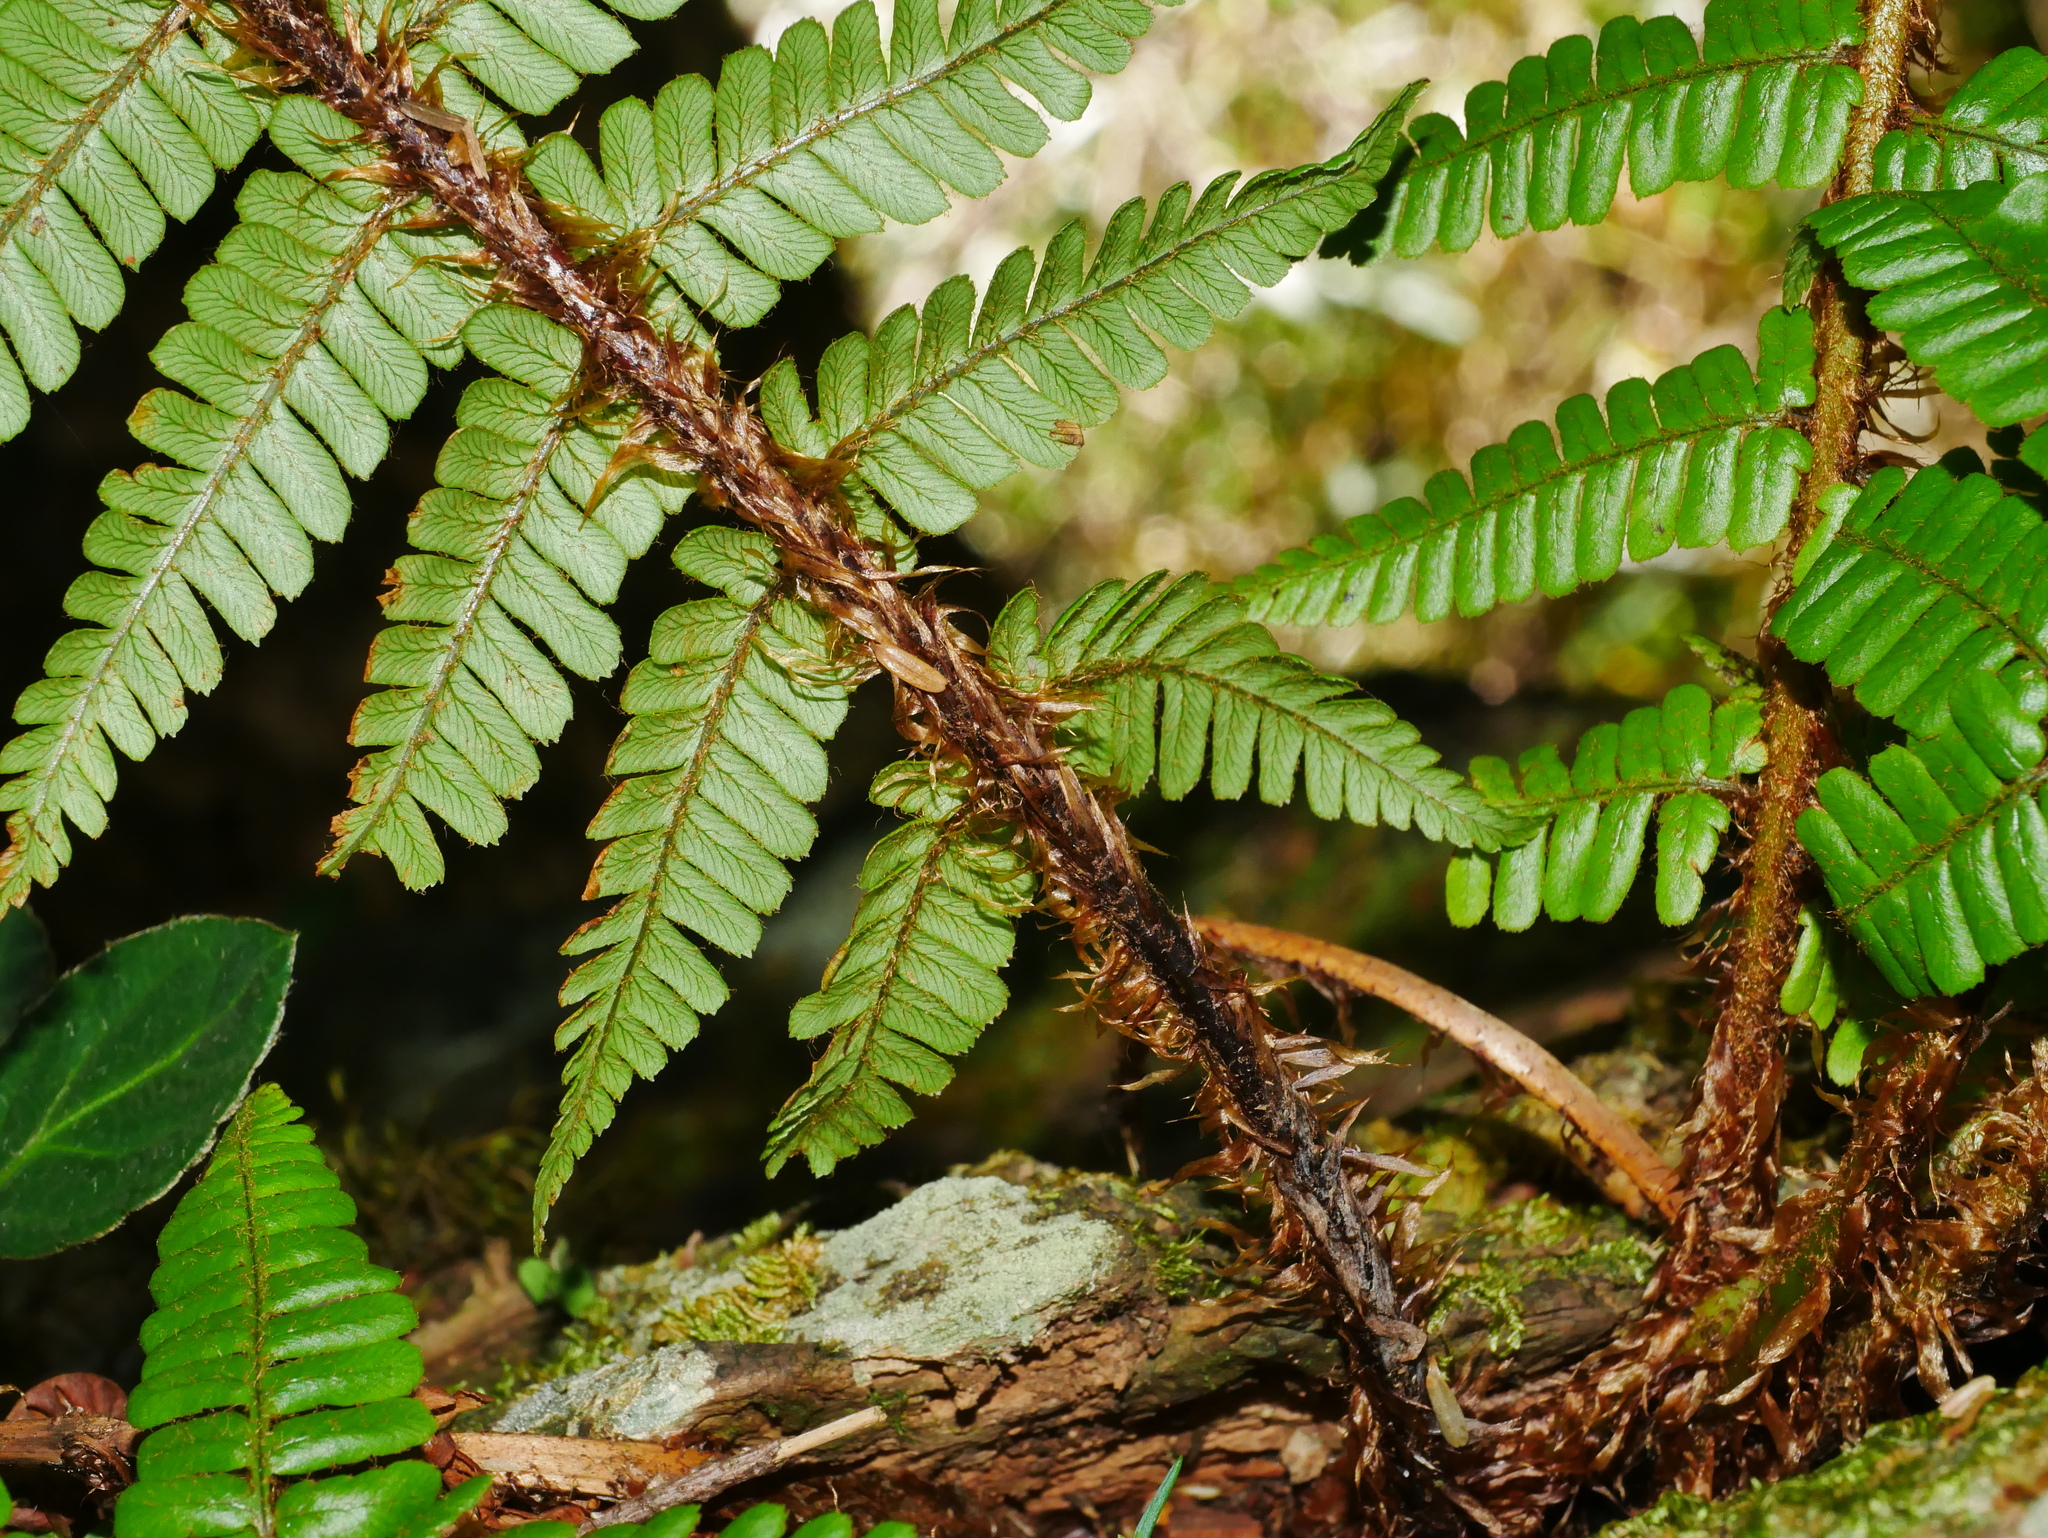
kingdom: Plantae
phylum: Tracheophyta
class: Polypodiopsida
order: Polypodiales
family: Dryopteridaceae
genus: Dryopteris
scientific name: Dryopteris wallichiana
